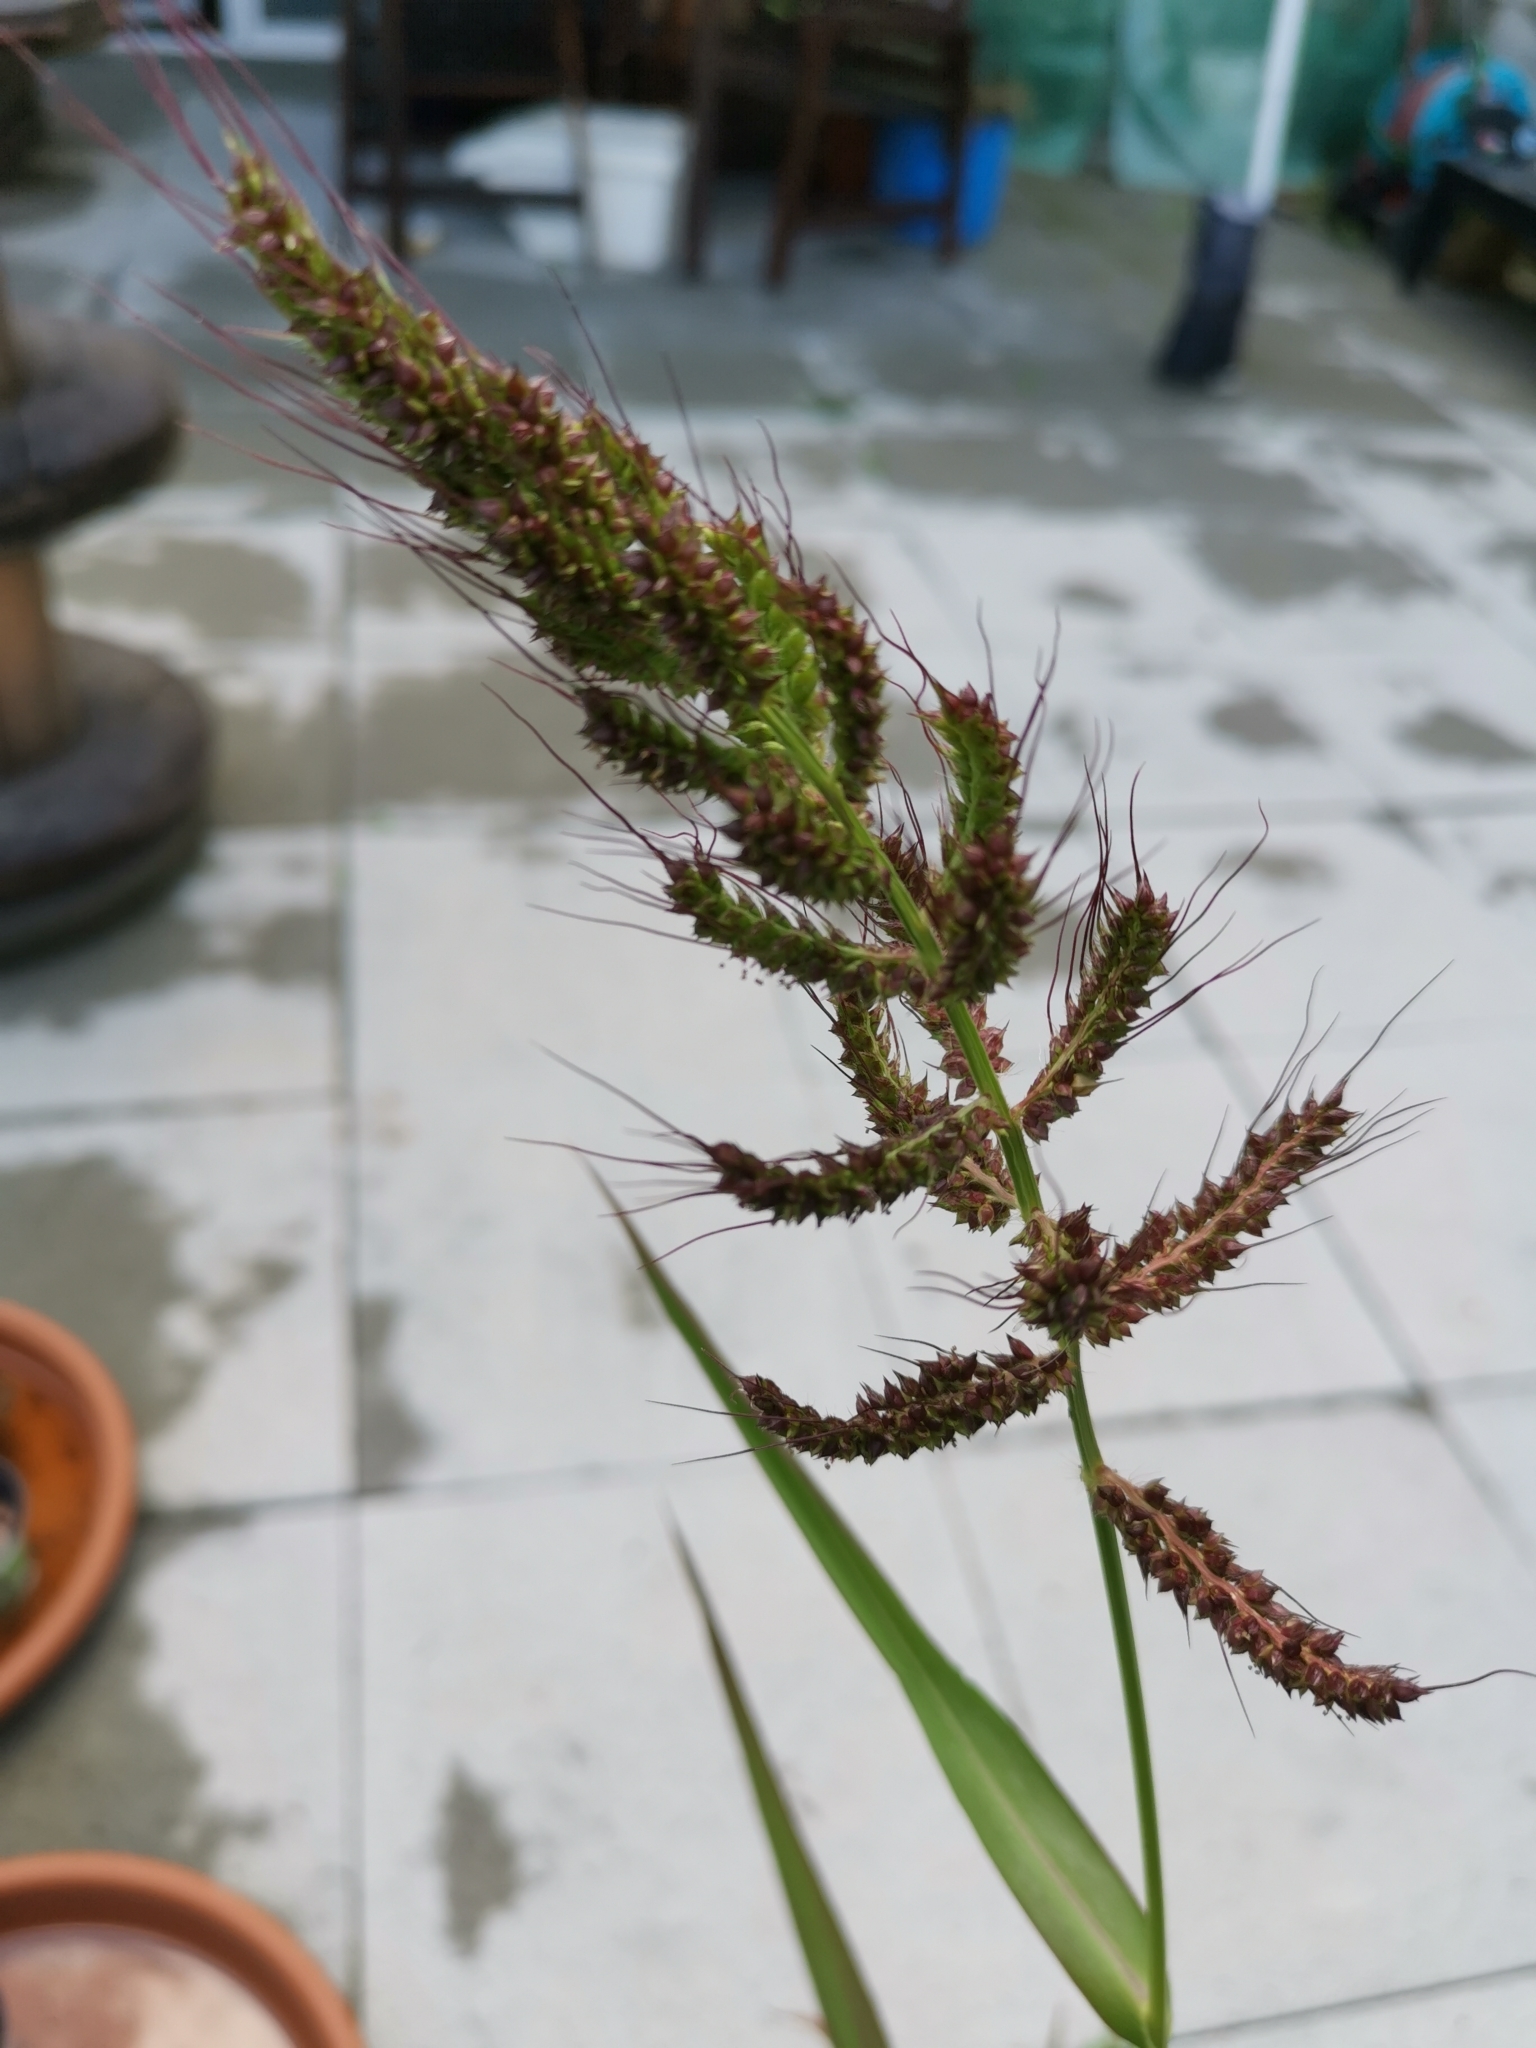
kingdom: Plantae
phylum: Tracheophyta
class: Liliopsida
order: Poales
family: Poaceae
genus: Echinochloa
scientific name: Echinochloa crus-galli
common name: Cockspur
